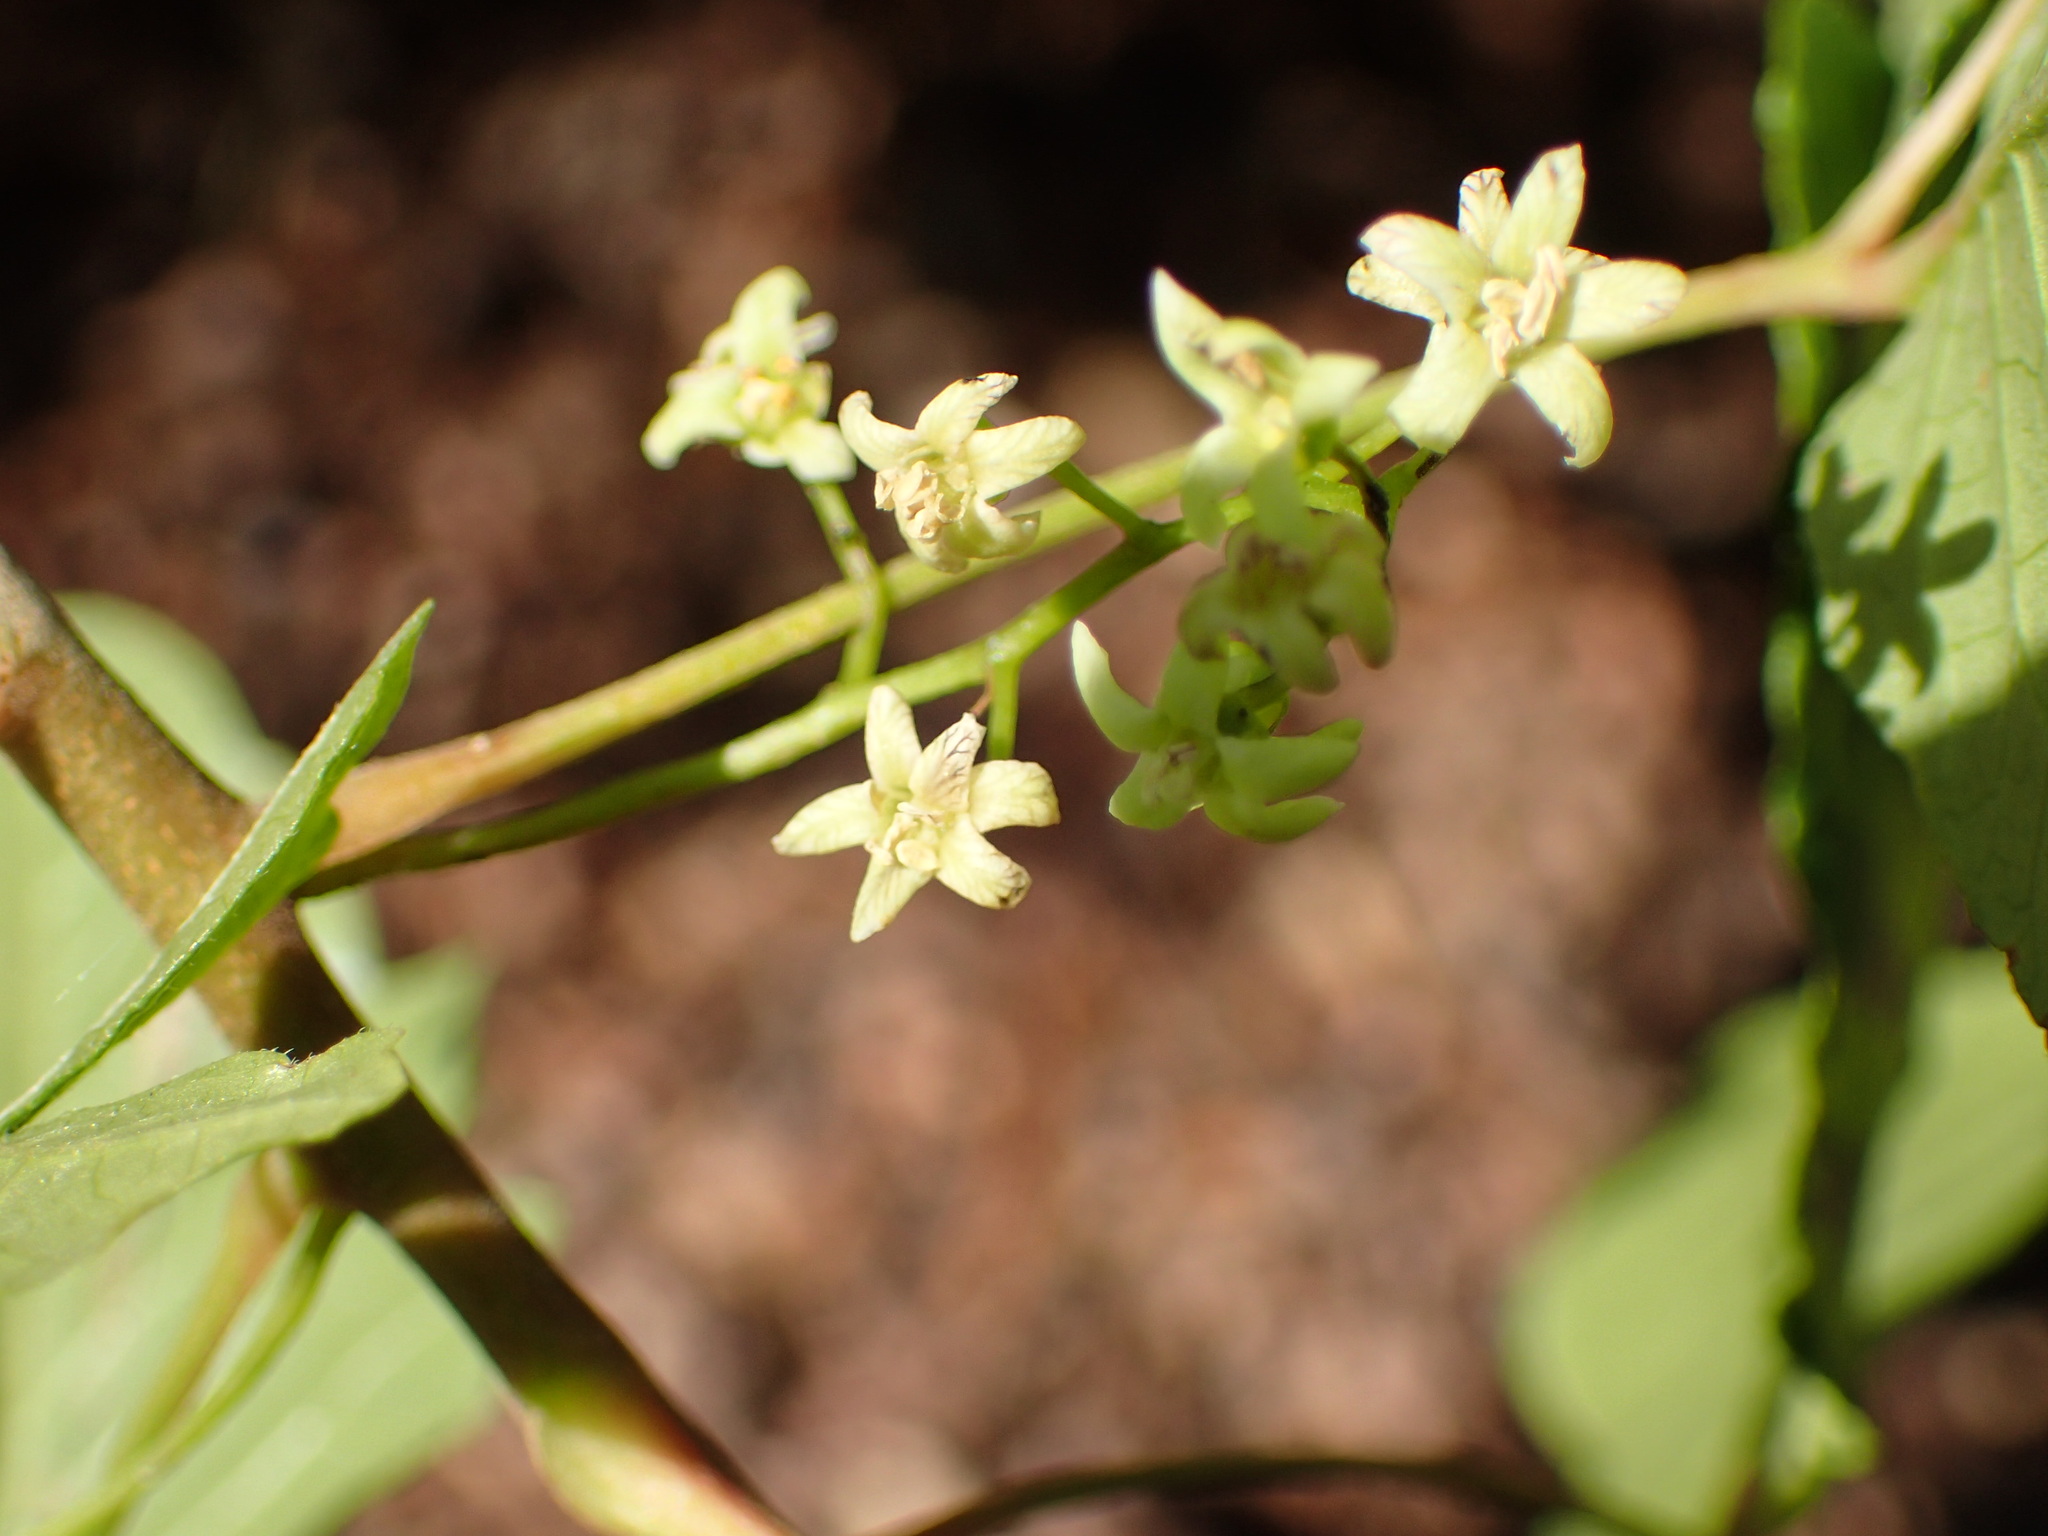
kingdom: Plantae
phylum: Tracheophyta
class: Magnoliopsida
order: Sapindales
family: Anacardiaceae
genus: Toxicodendron
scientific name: Toxicodendron diversilobum
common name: Pacific poison-oak
